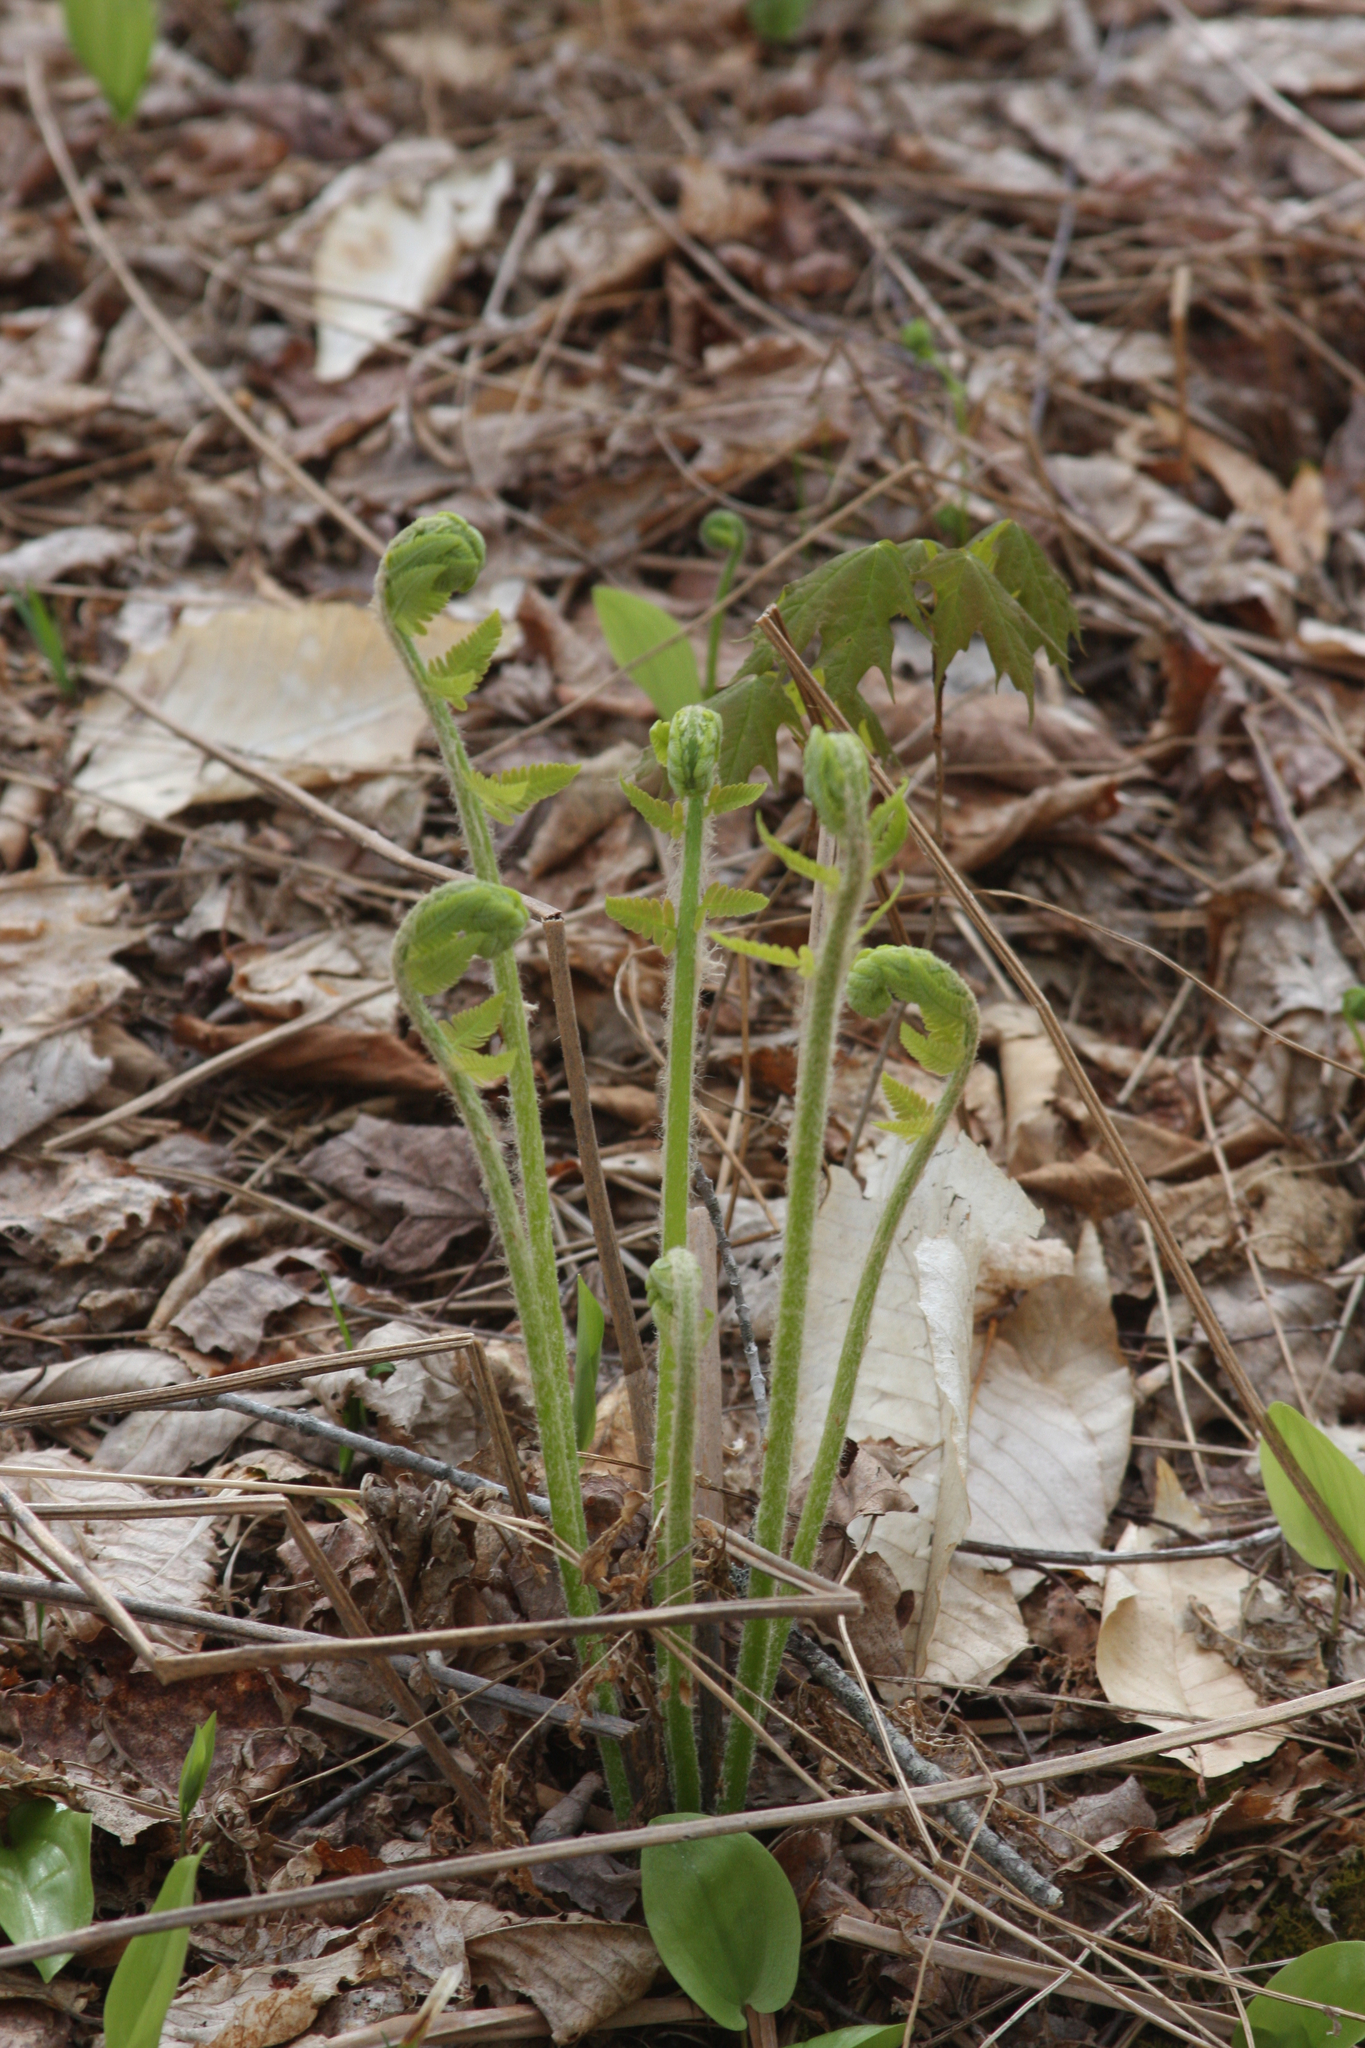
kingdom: Plantae
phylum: Tracheophyta
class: Liliopsida
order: Asparagales
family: Asparagaceae
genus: Maianthemum
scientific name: Maianthemum canadense
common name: False lily-of-the-valley
